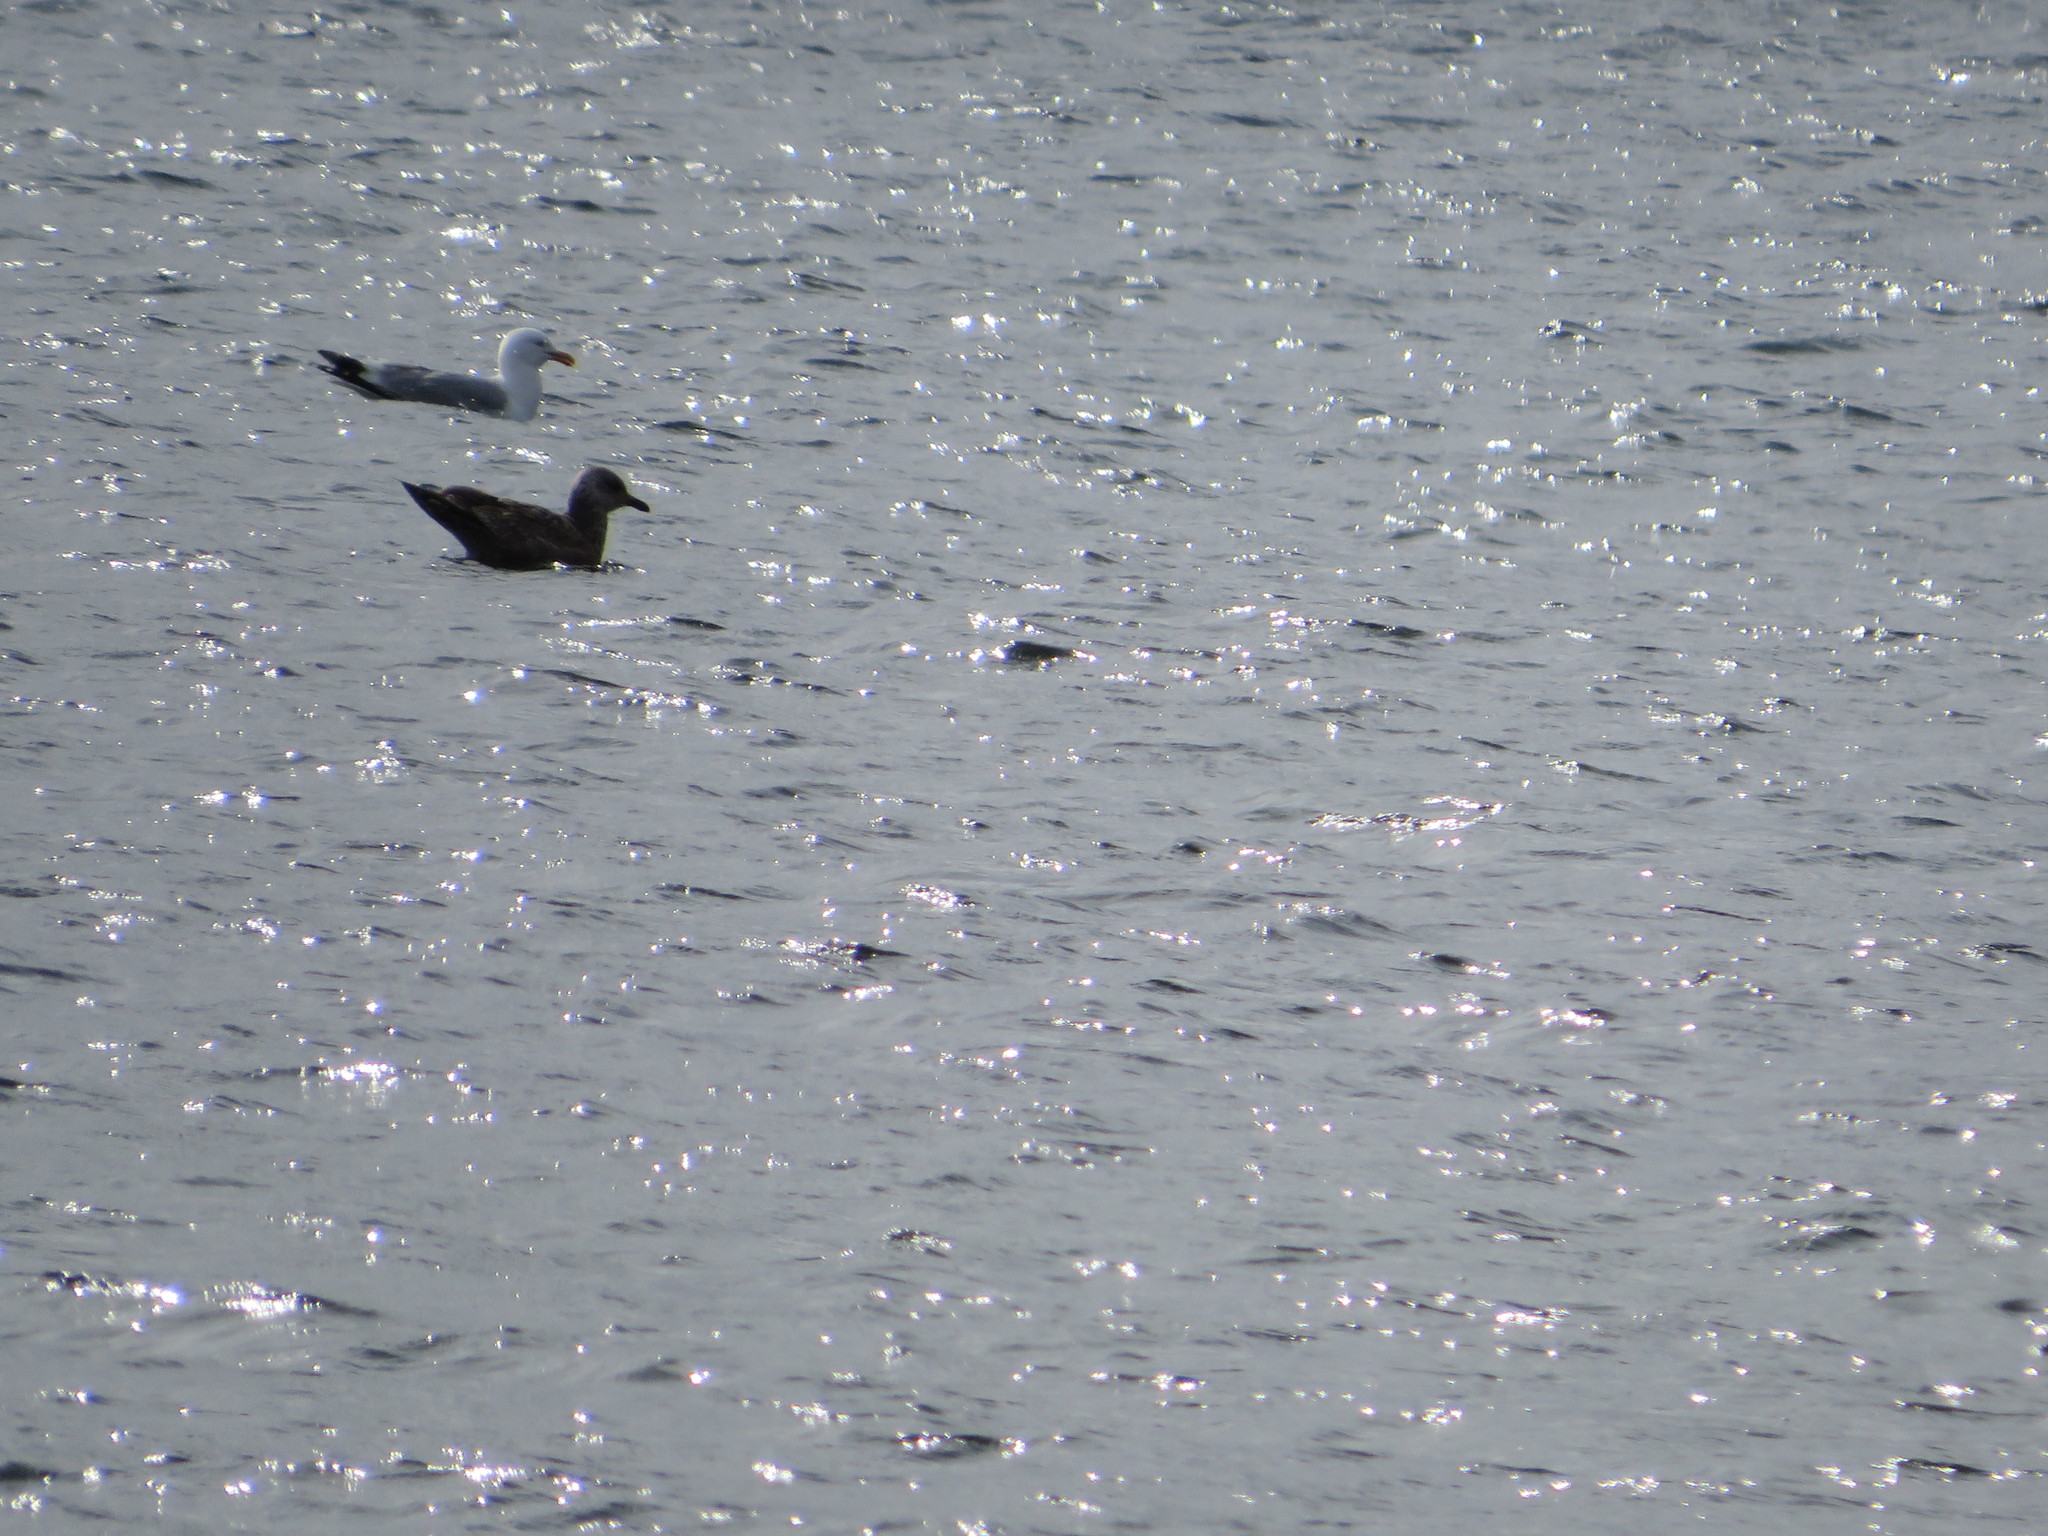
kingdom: Animalia
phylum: Chordata
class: Aves
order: Charadriiformes
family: Laridae
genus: Larus
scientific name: Larus argentatus
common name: Herring gull
